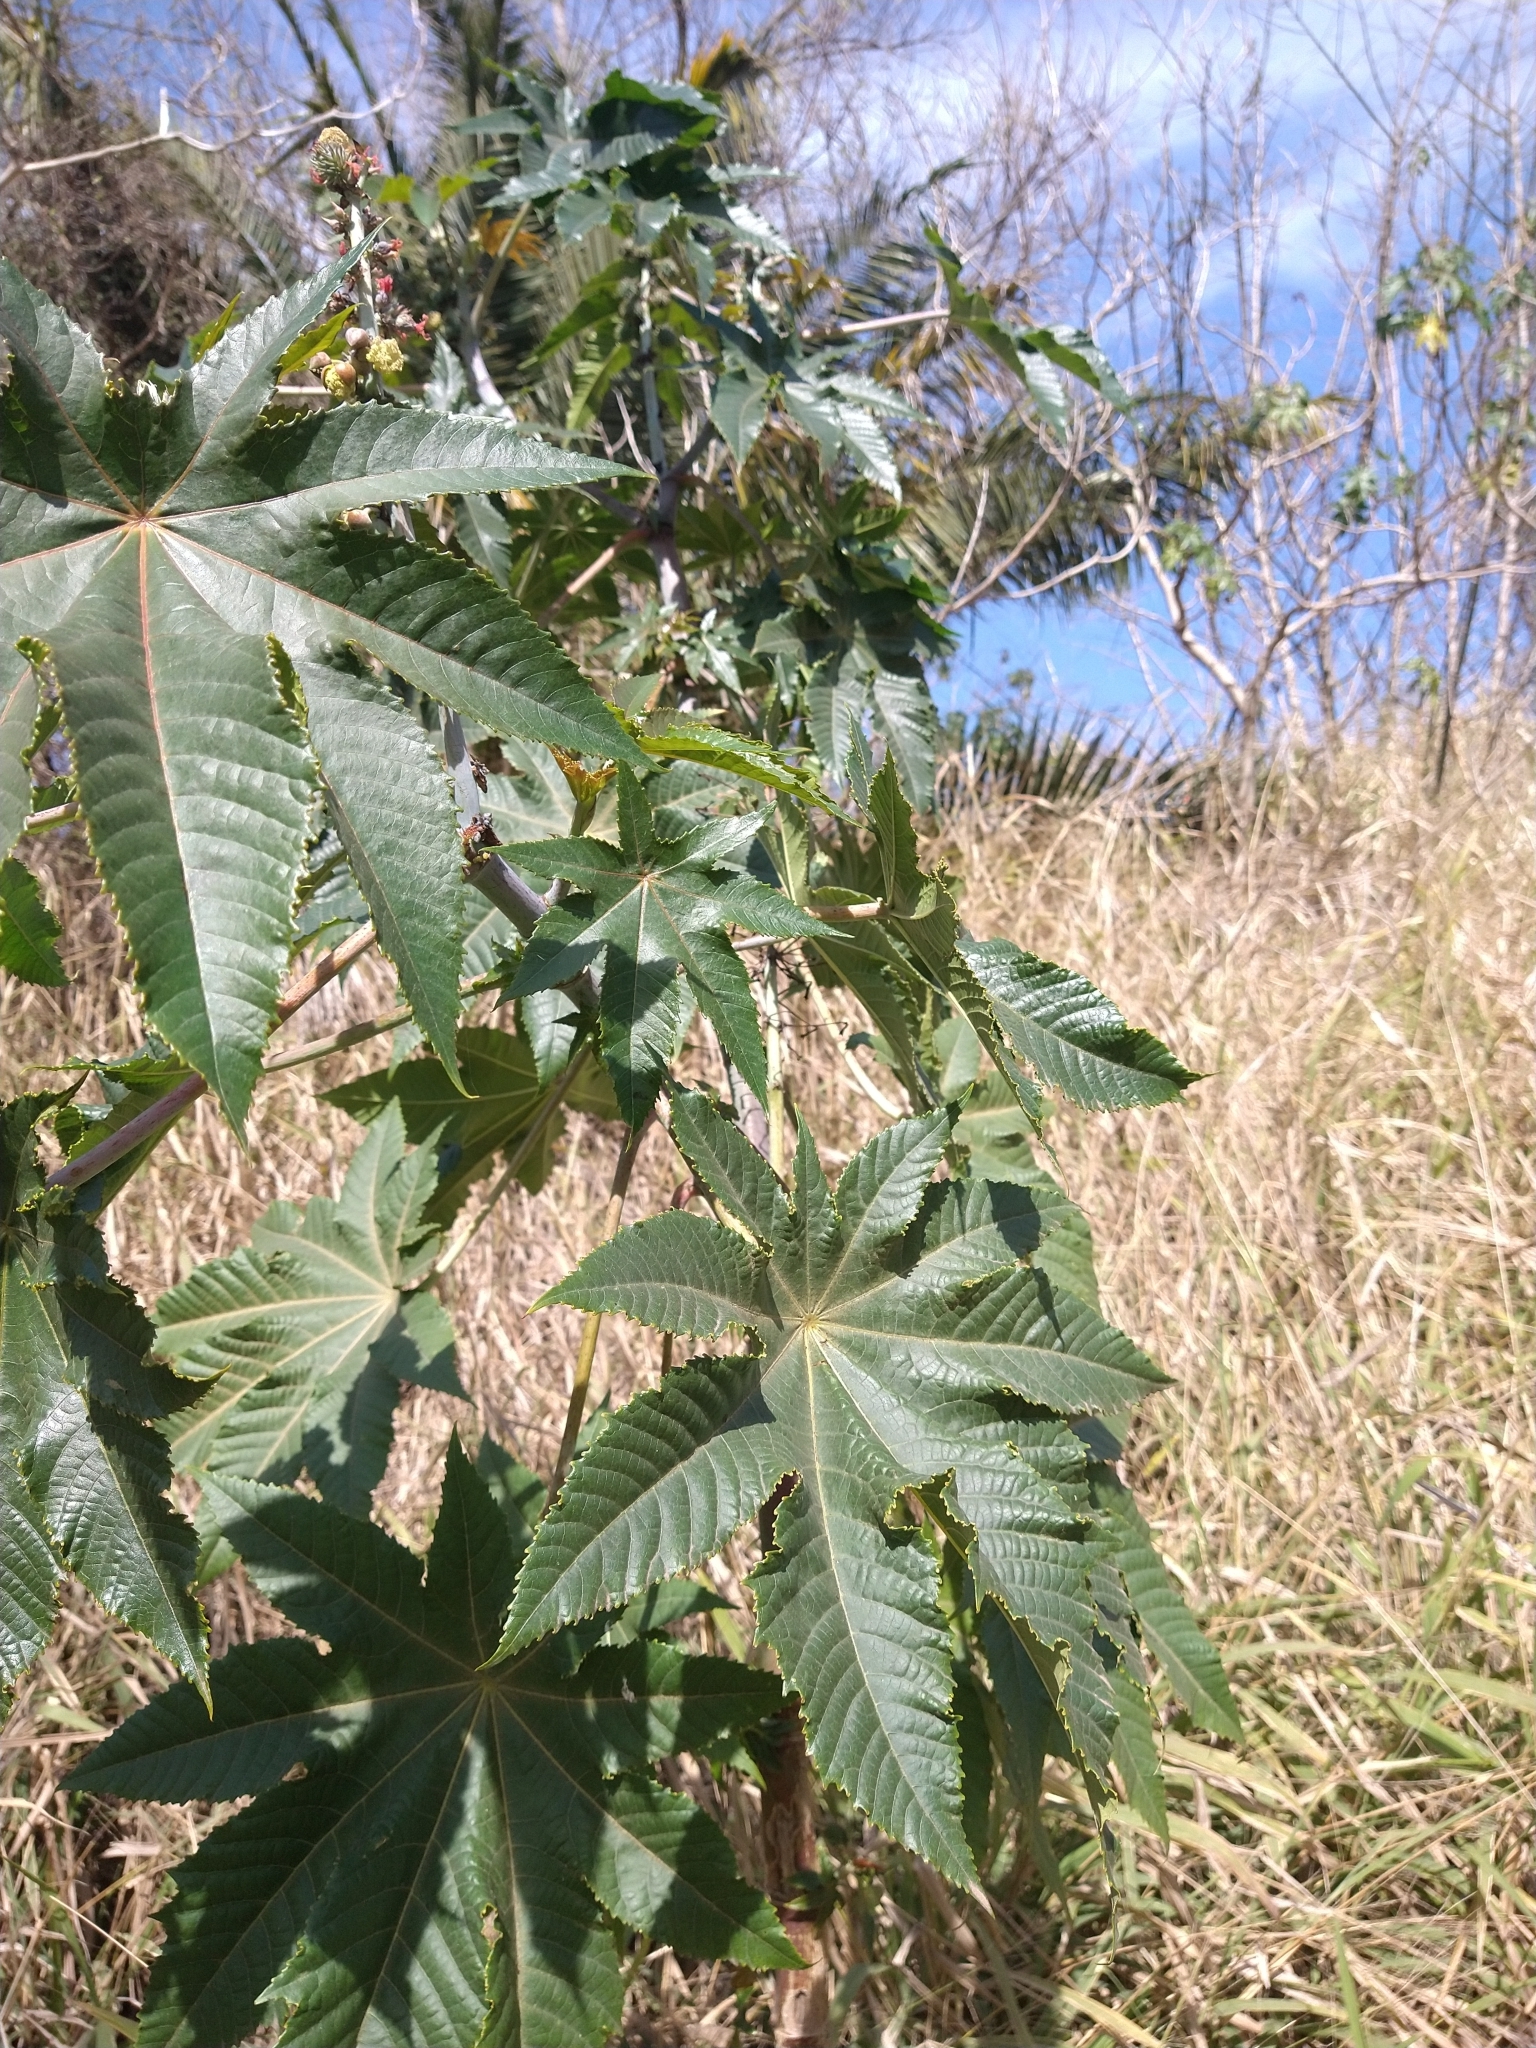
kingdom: Plantae
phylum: Tracheophyta
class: Magnoliopsida
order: Malpighiales
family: Euphorbiaceae
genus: Ricinus
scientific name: Ricinus communis
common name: Castor-oil-plant
